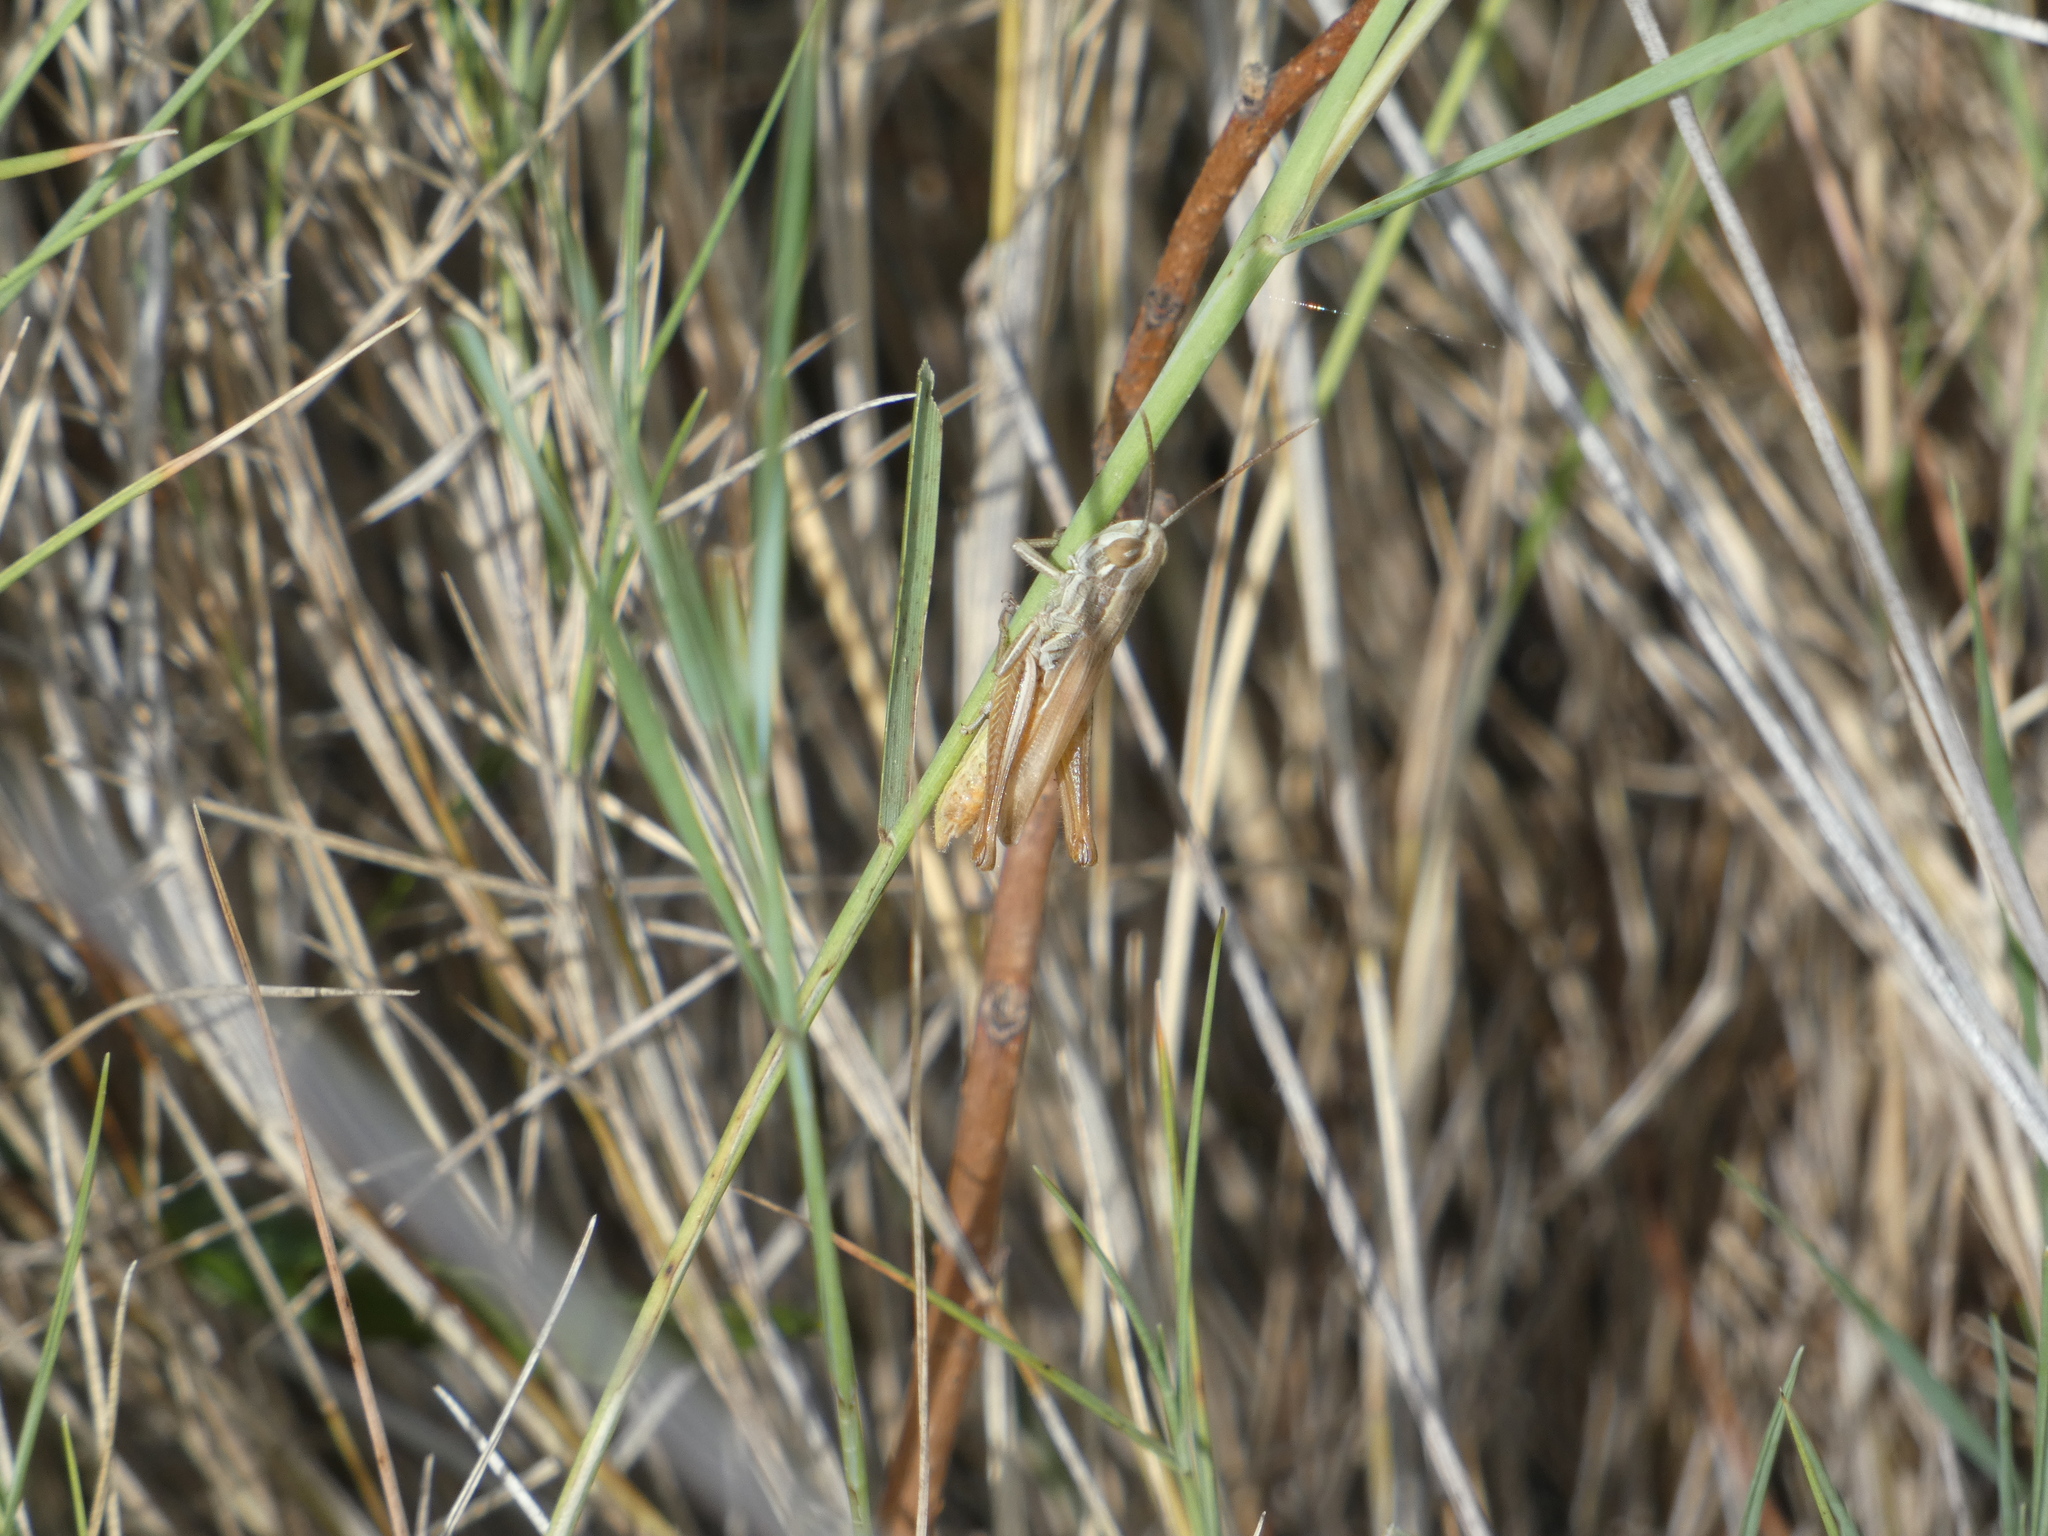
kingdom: Animalia
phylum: Arthropoda
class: Insecta
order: Orthoptera
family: Acrididae
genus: Euchorthippus
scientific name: Euchorthippus elegantulus
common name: Elegant straw grasshopper
